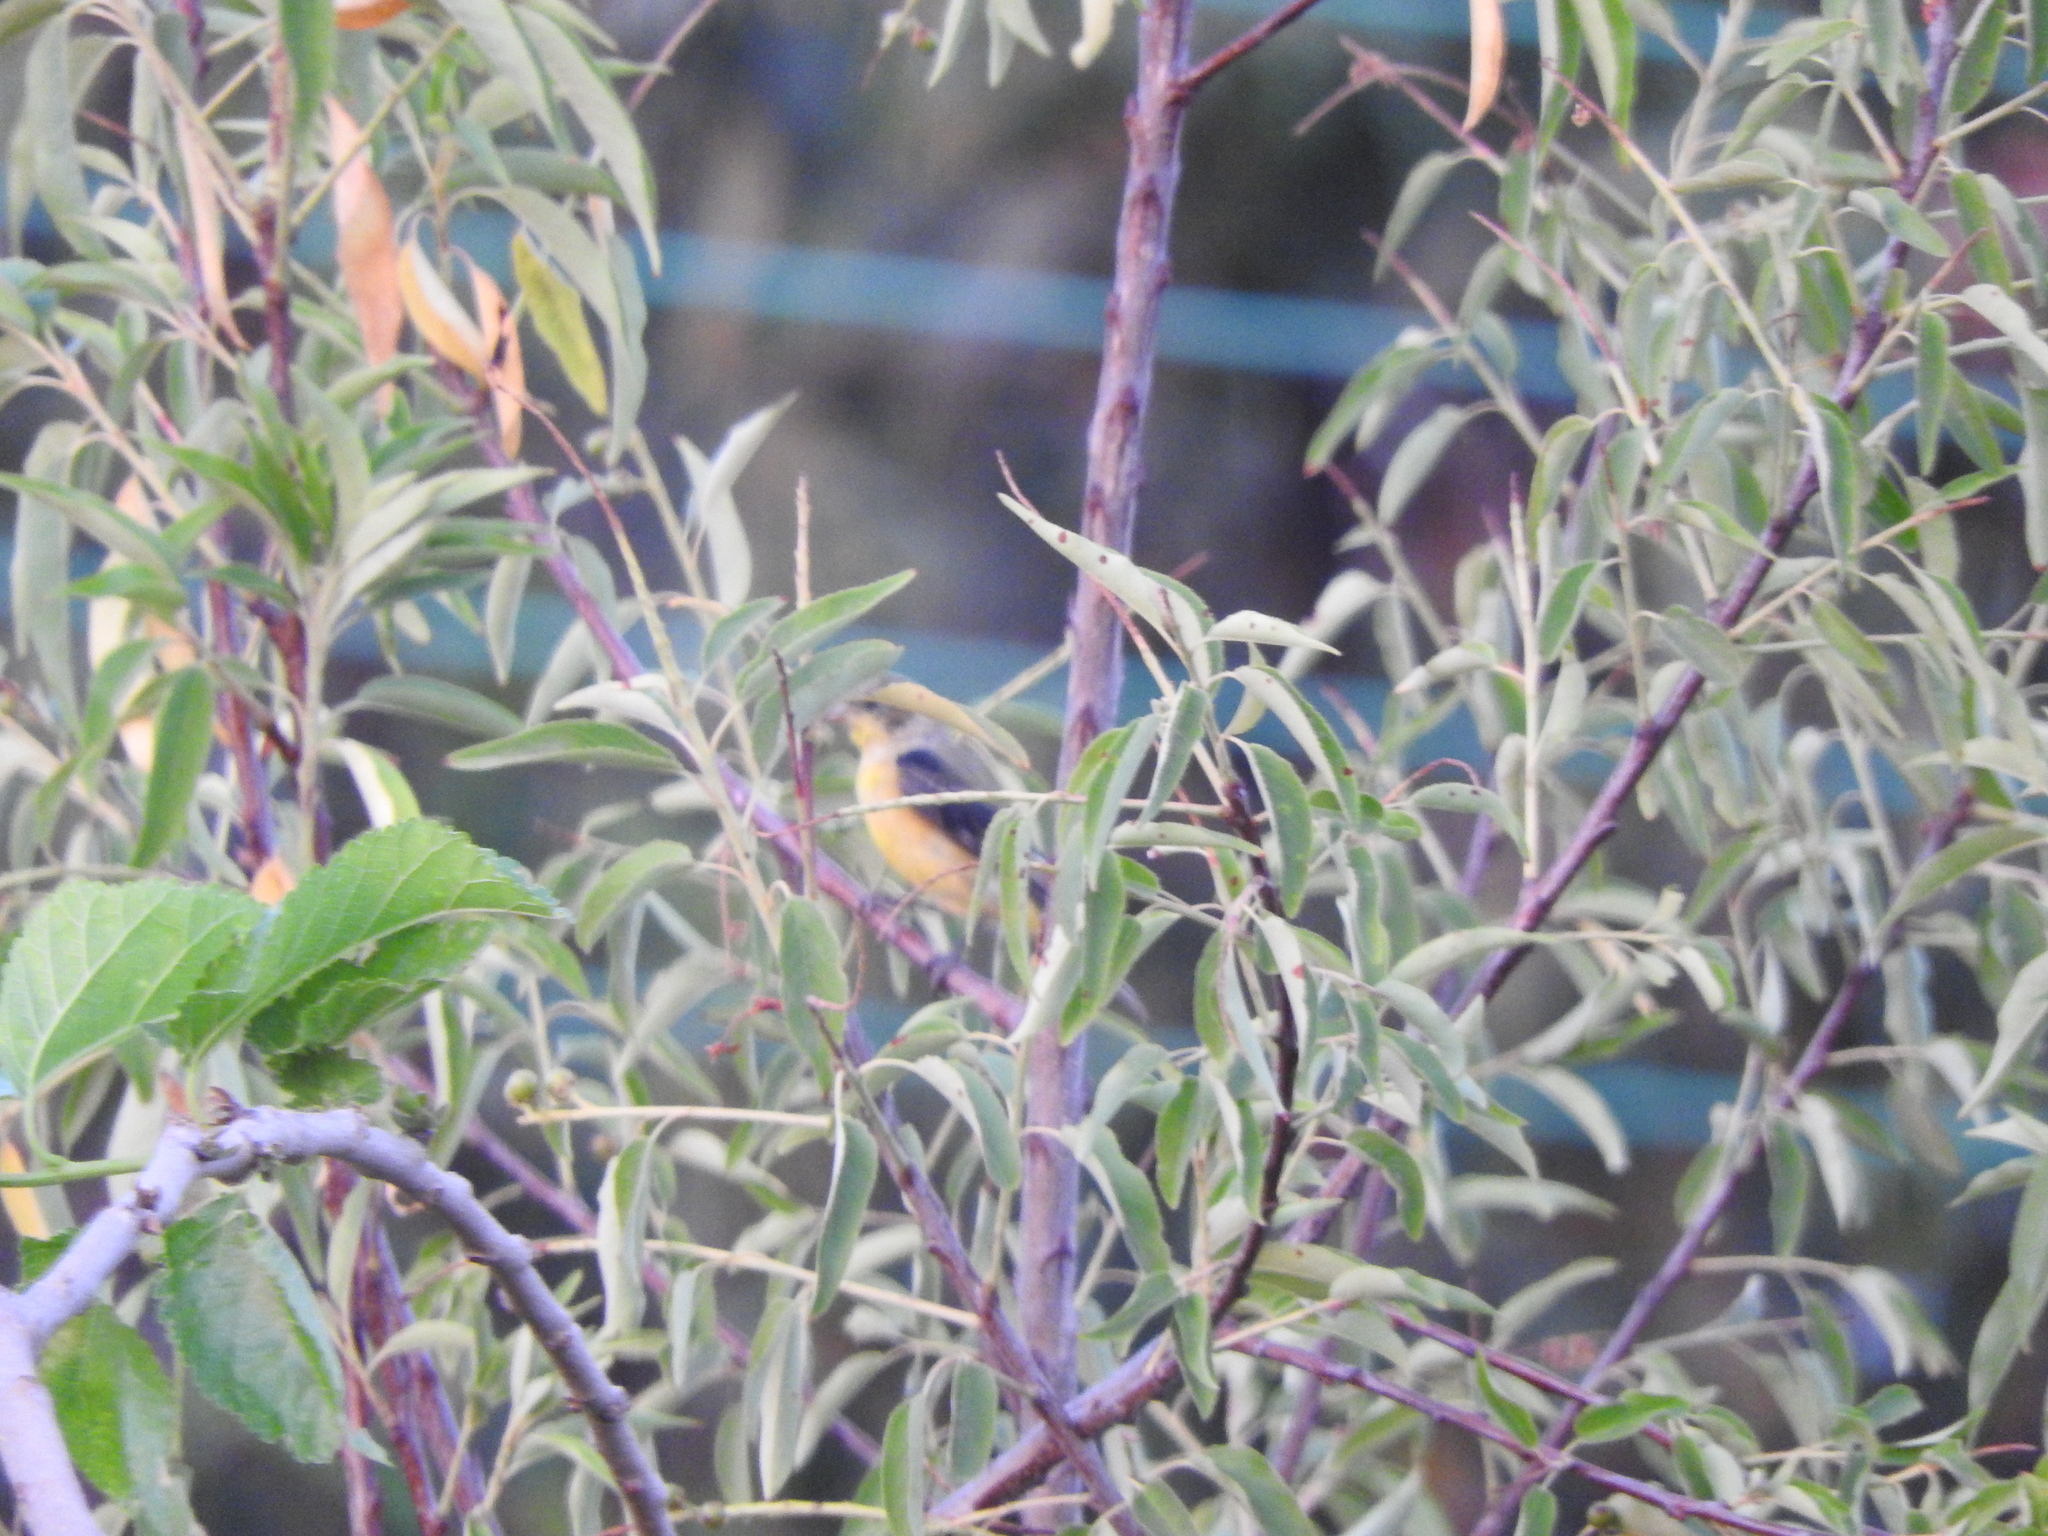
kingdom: Animalia
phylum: Chordata
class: Aves
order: Passeriformes
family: Fringillidae
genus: Spinus
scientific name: Spinus psaltria
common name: Lesser goldfinch
